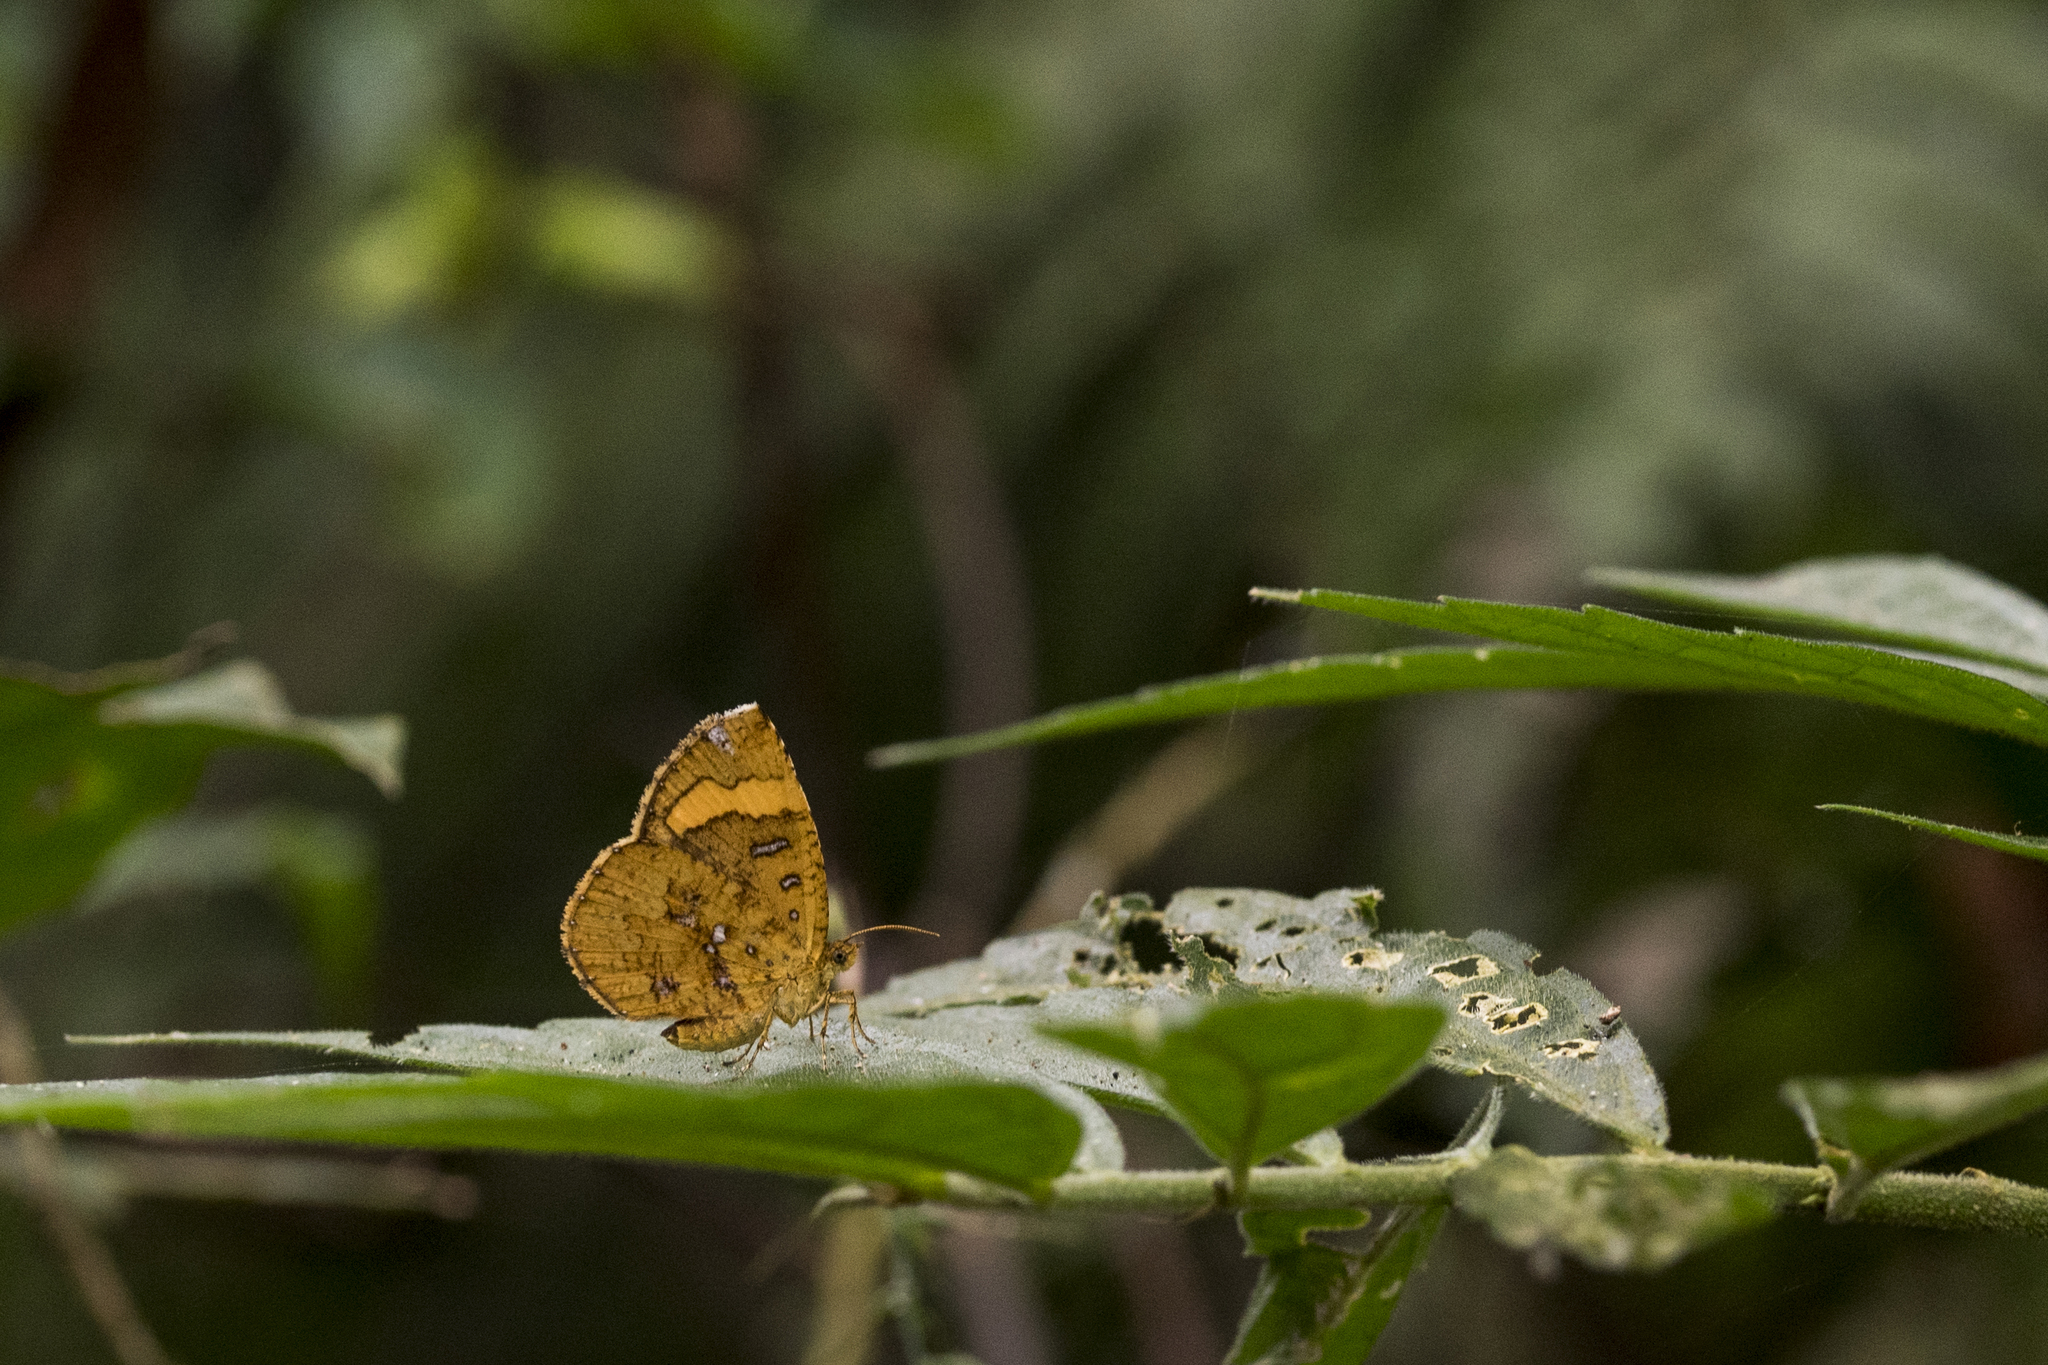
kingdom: Animalia
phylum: Arthropoda
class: Insecta
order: Lepidoptera
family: Callidulidae
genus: Petavia
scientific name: Petavia attenuata
